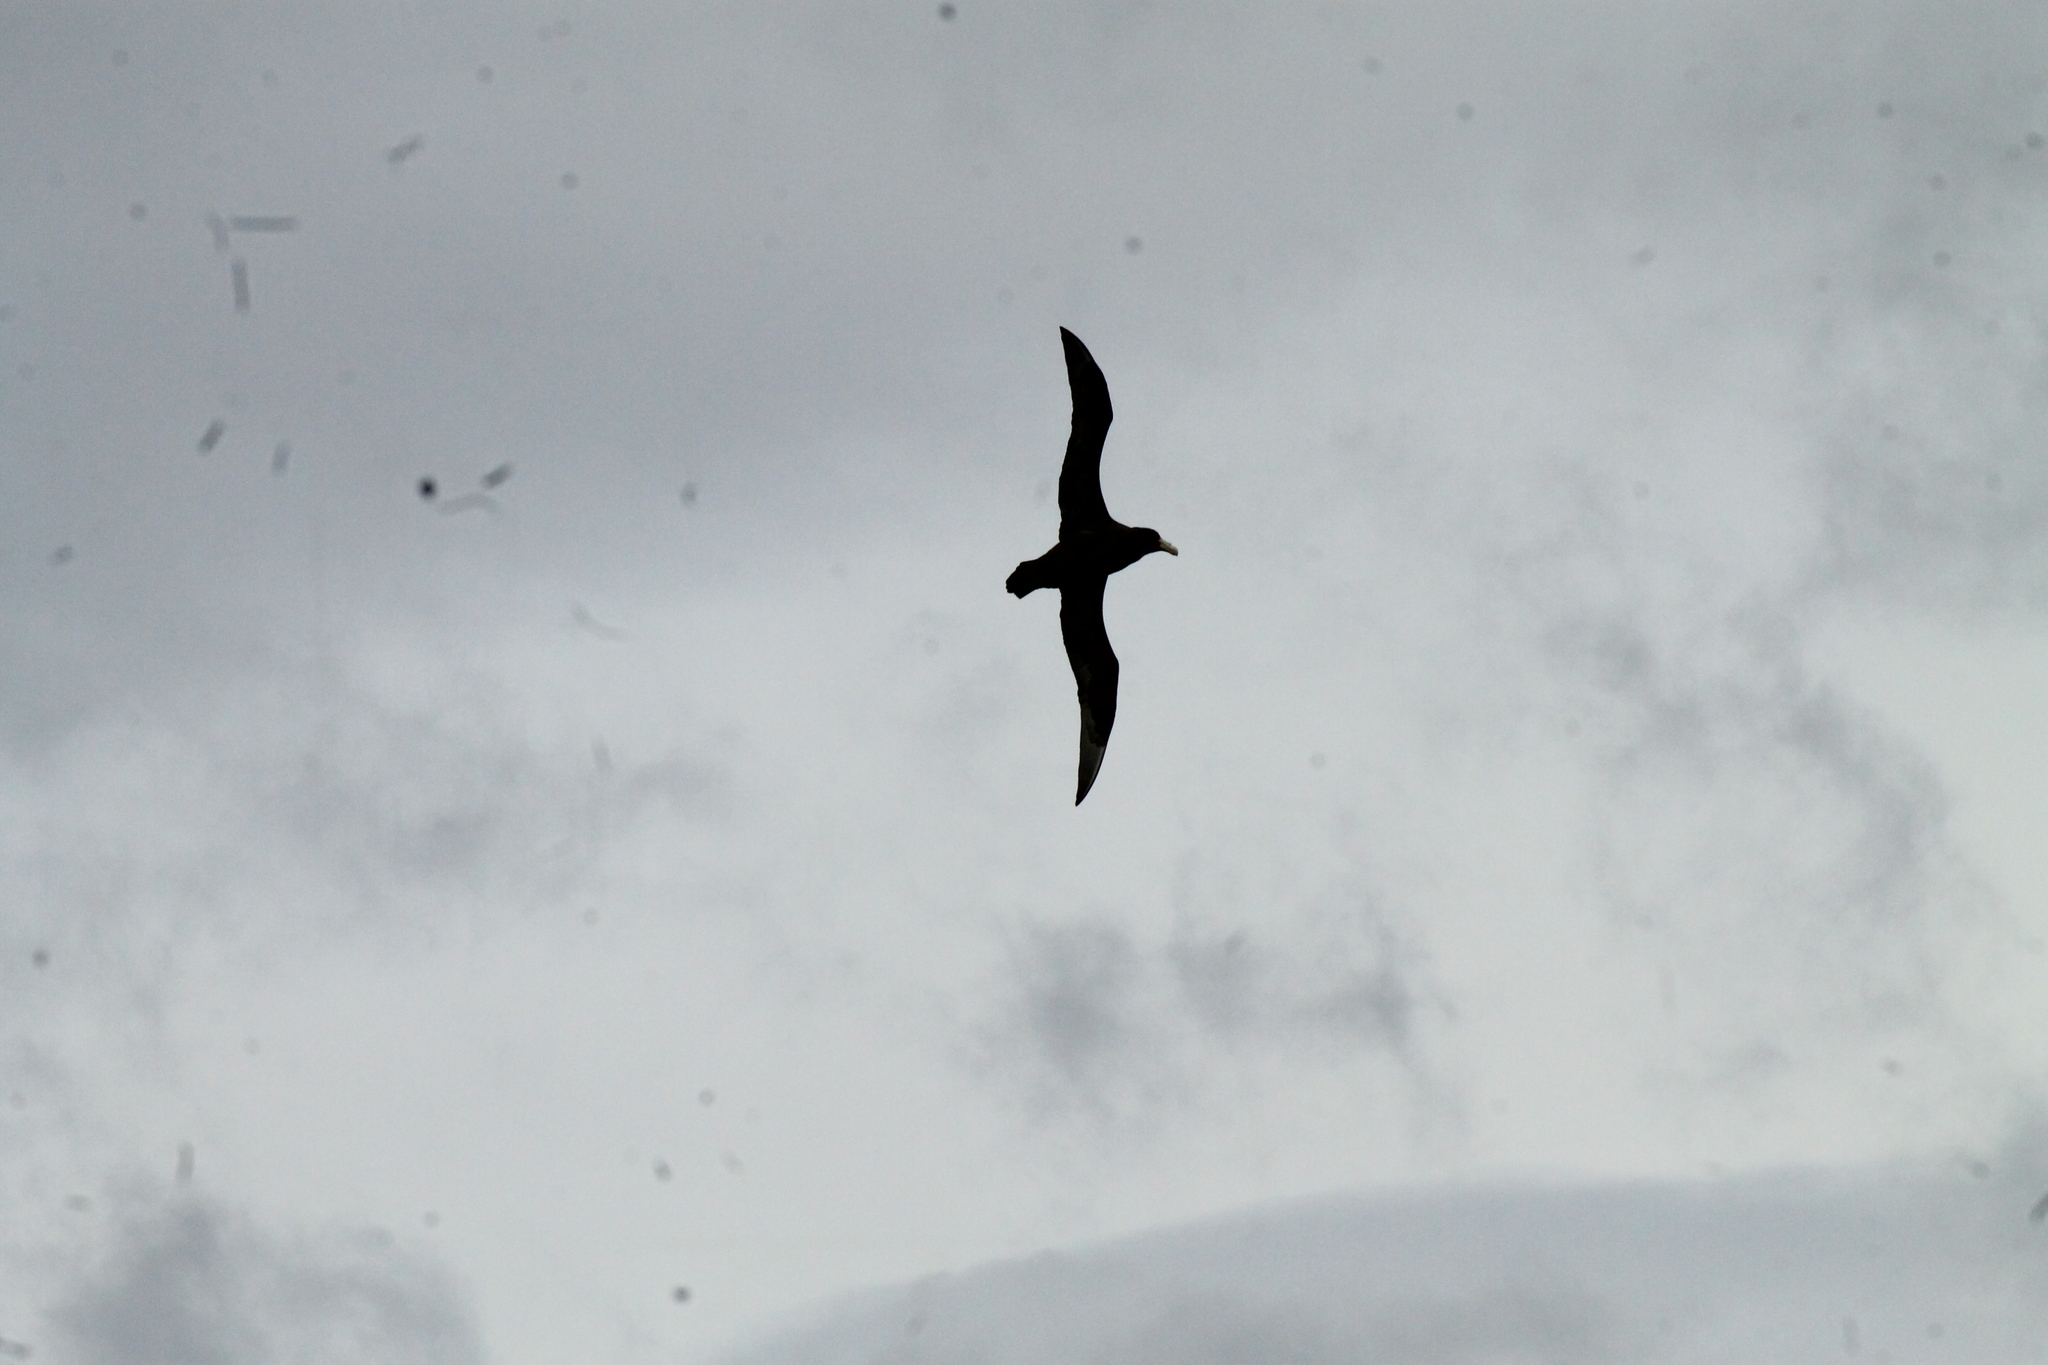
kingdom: Animalia
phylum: Chordata
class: Aves
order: Procellariiformes
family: Procellariidae
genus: Macronectes
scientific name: Macronectes giganteus
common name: Southern giant petrel
